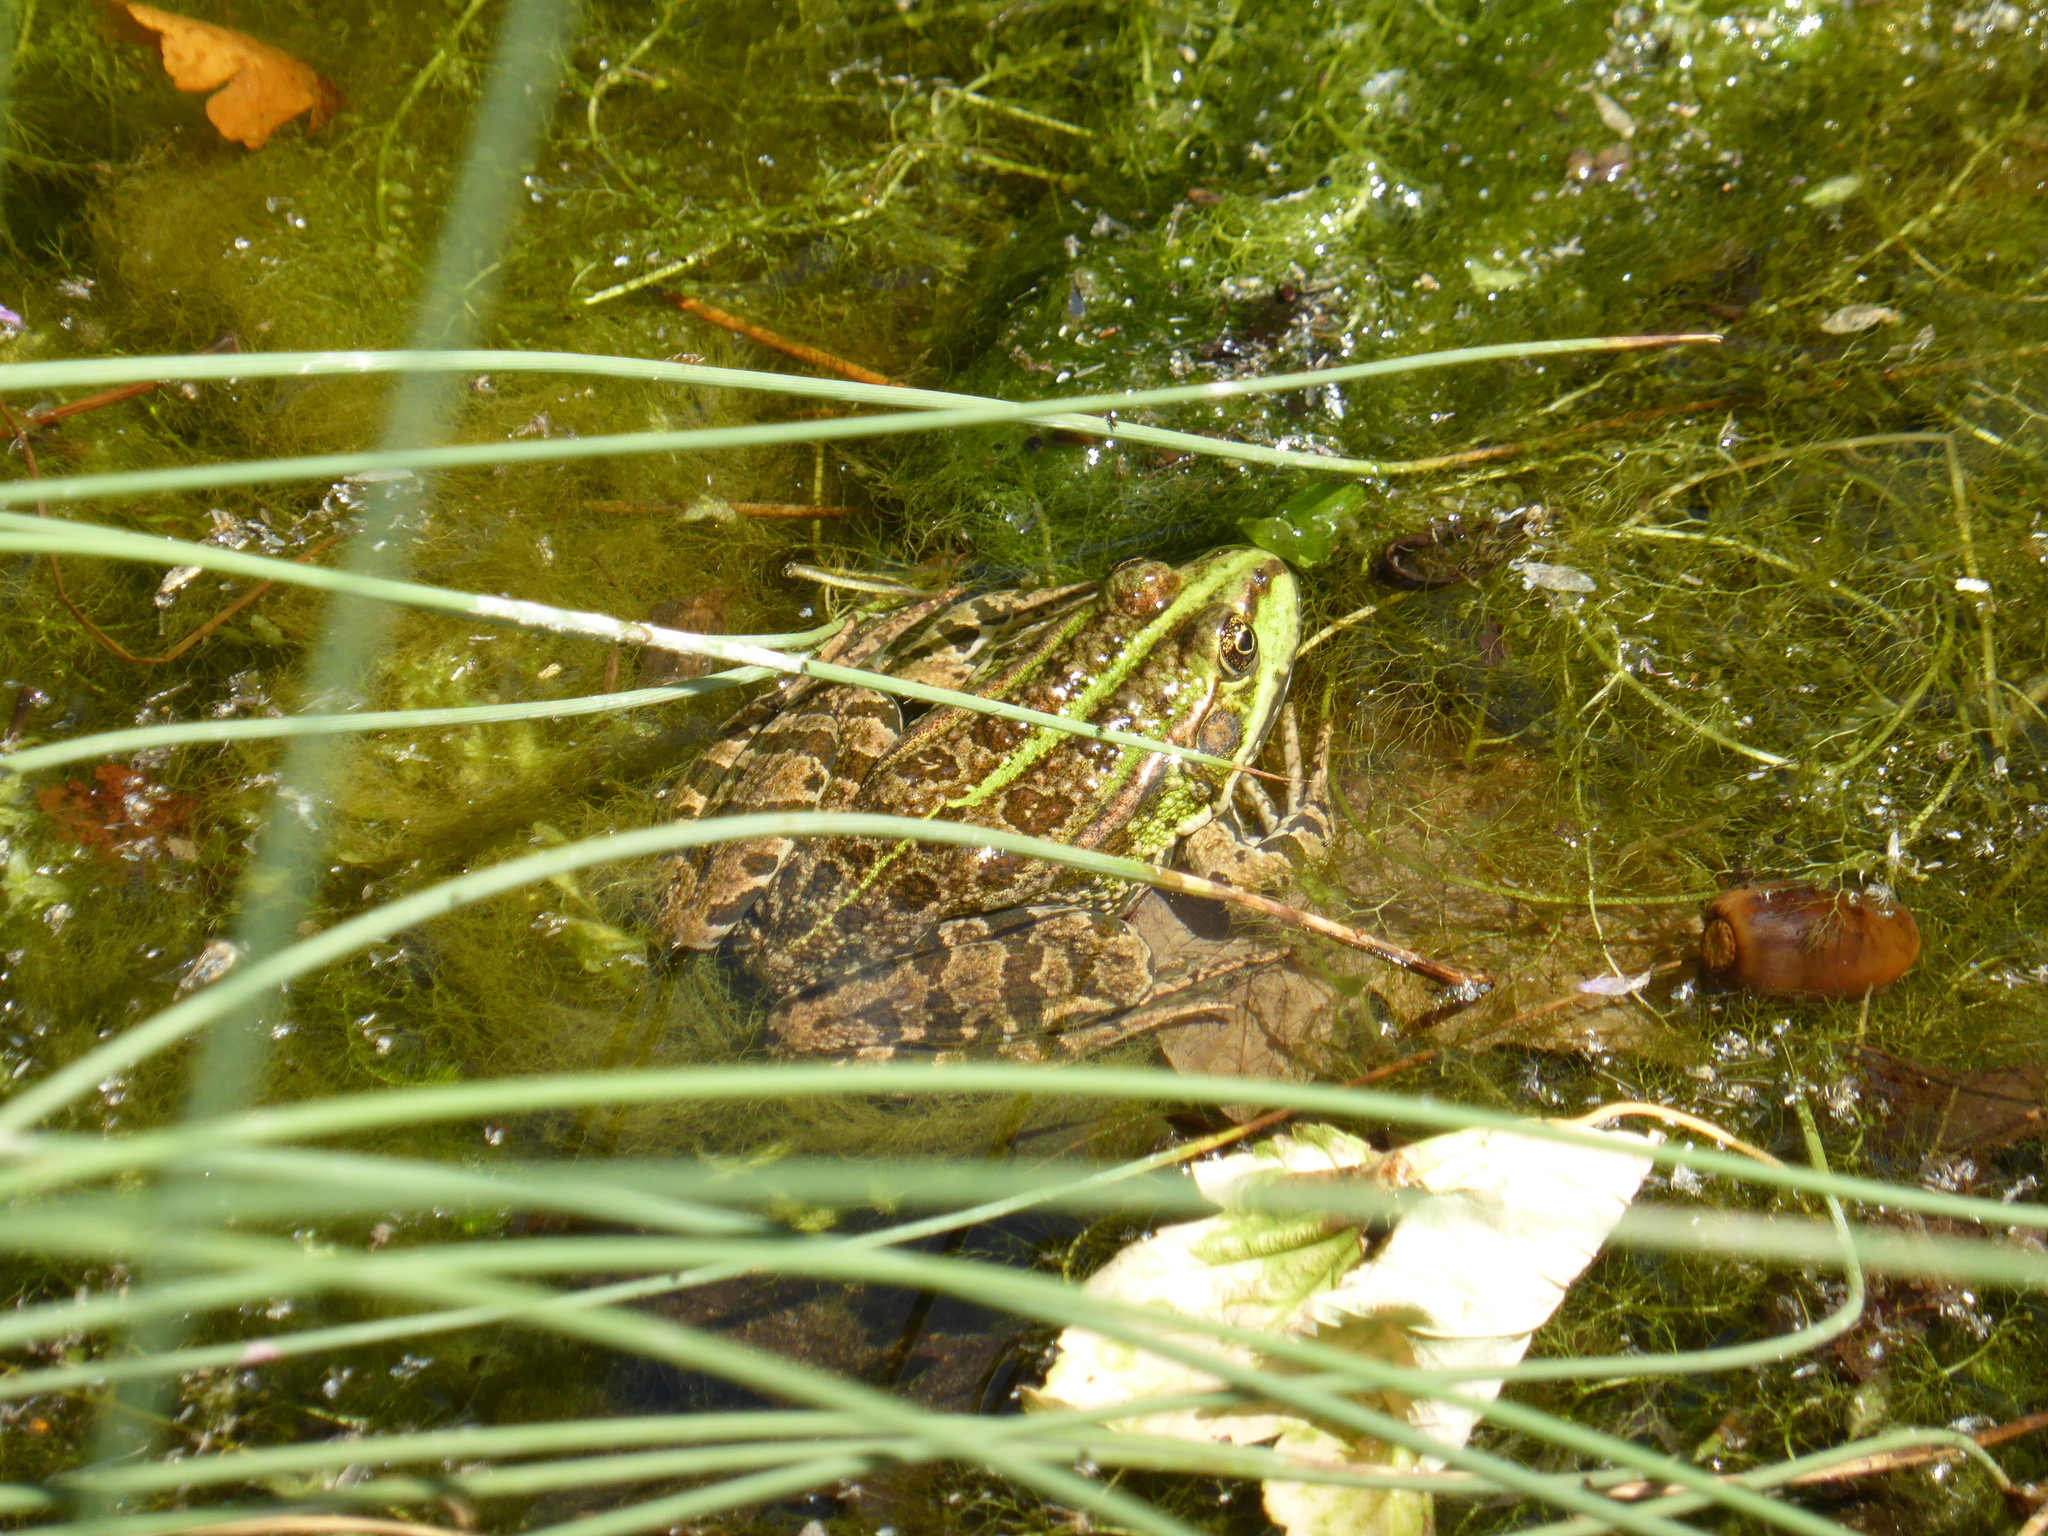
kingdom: Animalia
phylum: Chordata
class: Amphibia
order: Anura
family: Ranidae
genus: Pelophylax
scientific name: Pelophylax
